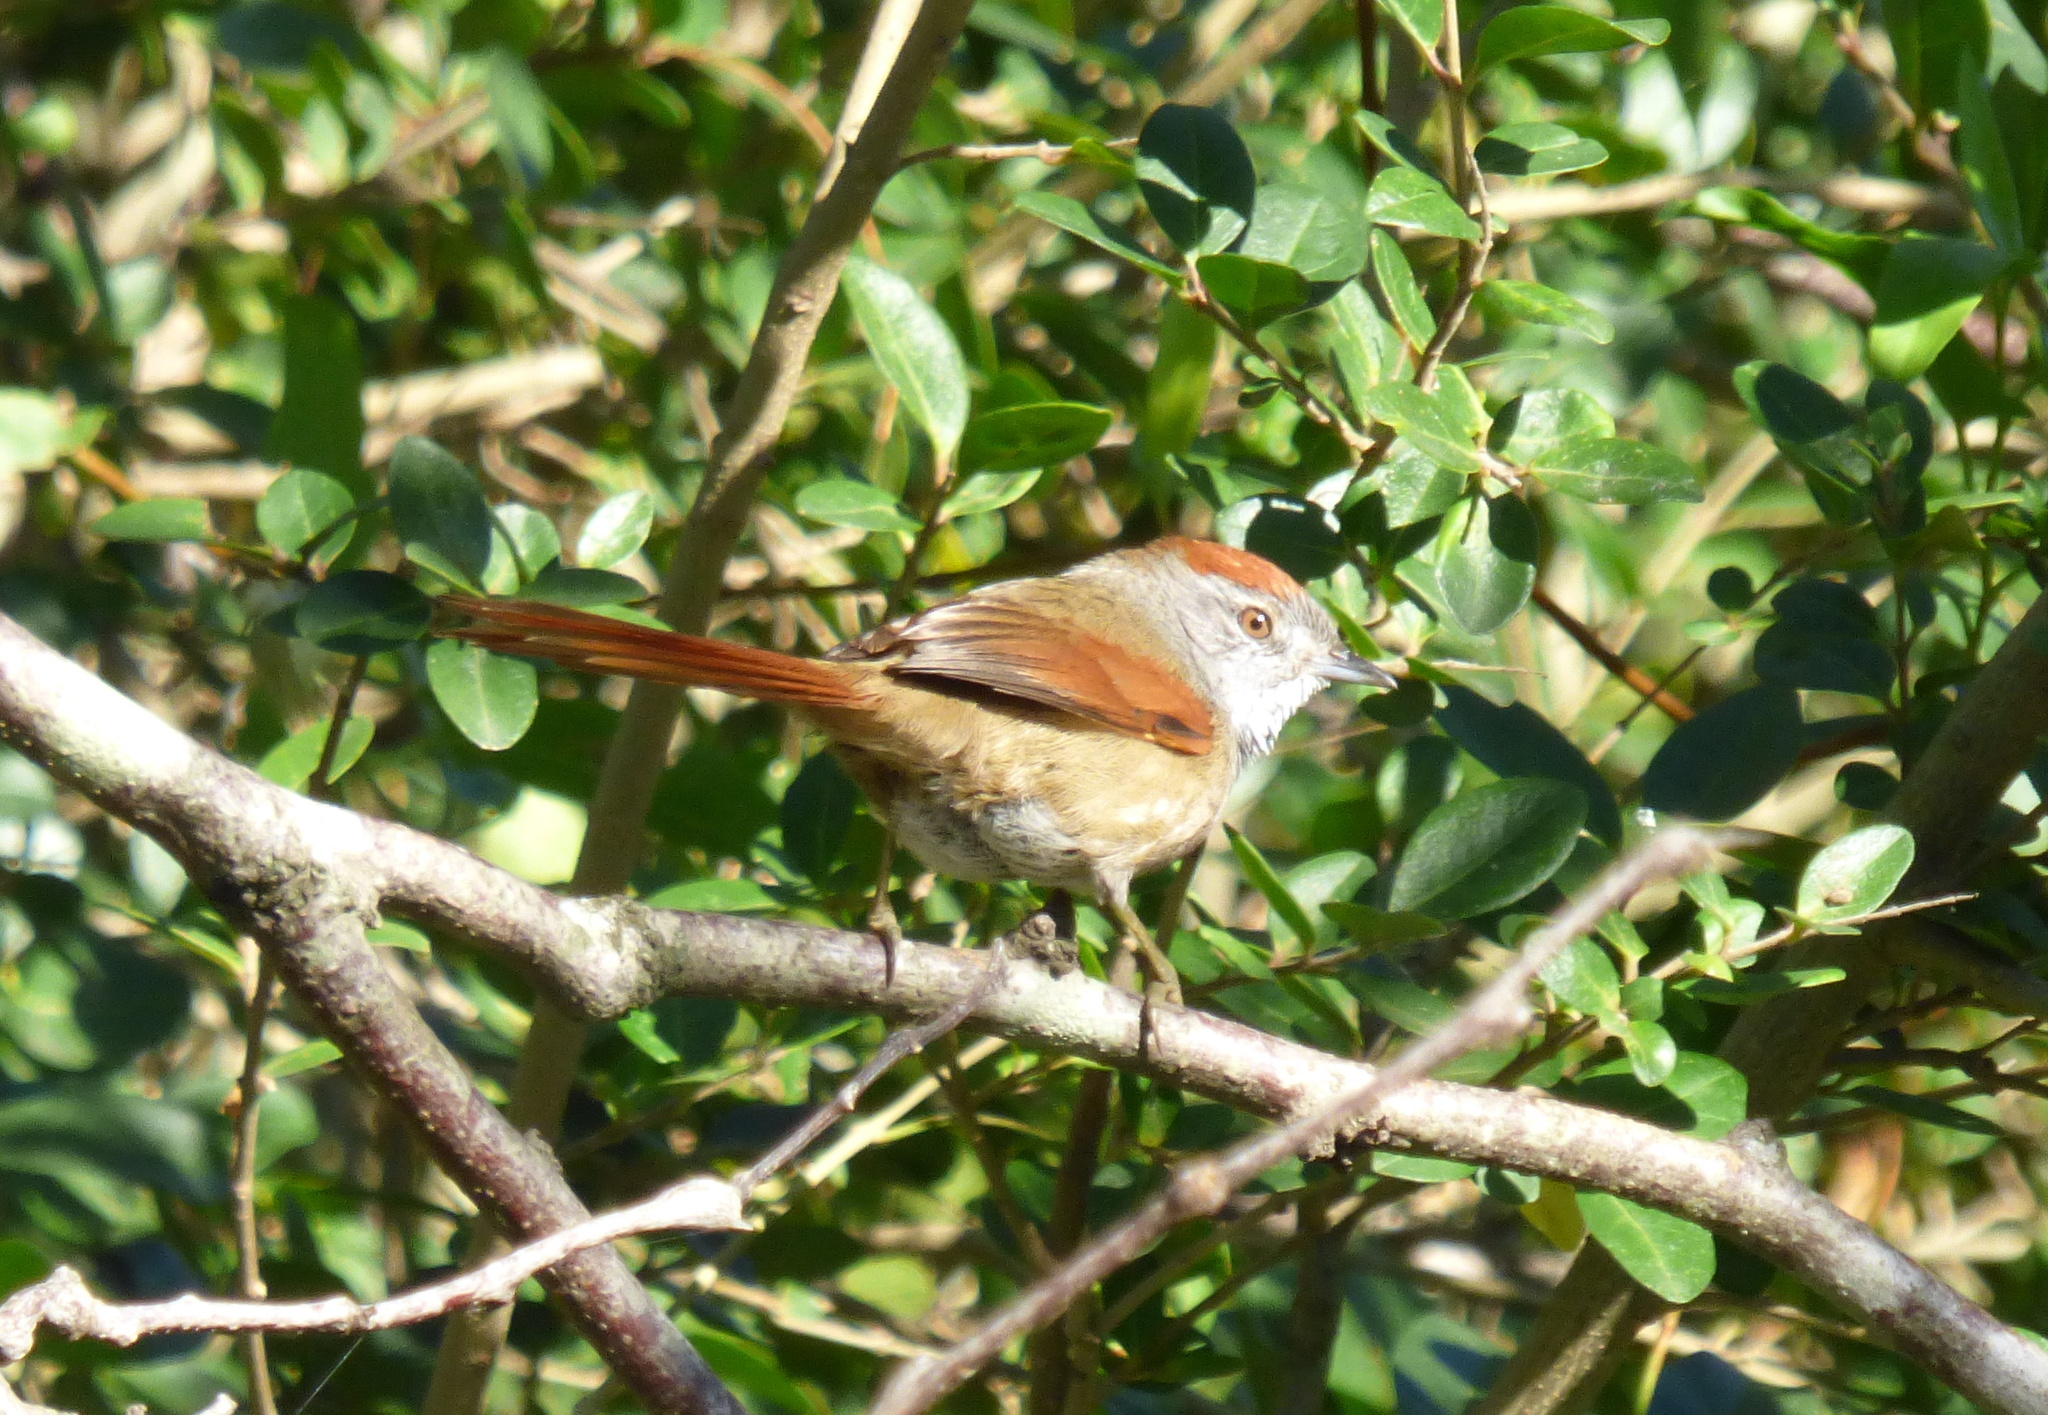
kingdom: Animalia
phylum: Chordata
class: Aves
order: Passeriformes
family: Furnariidae
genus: Synallaxis
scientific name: Synallaxis frontalis
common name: Sooty-fronted spinetail
